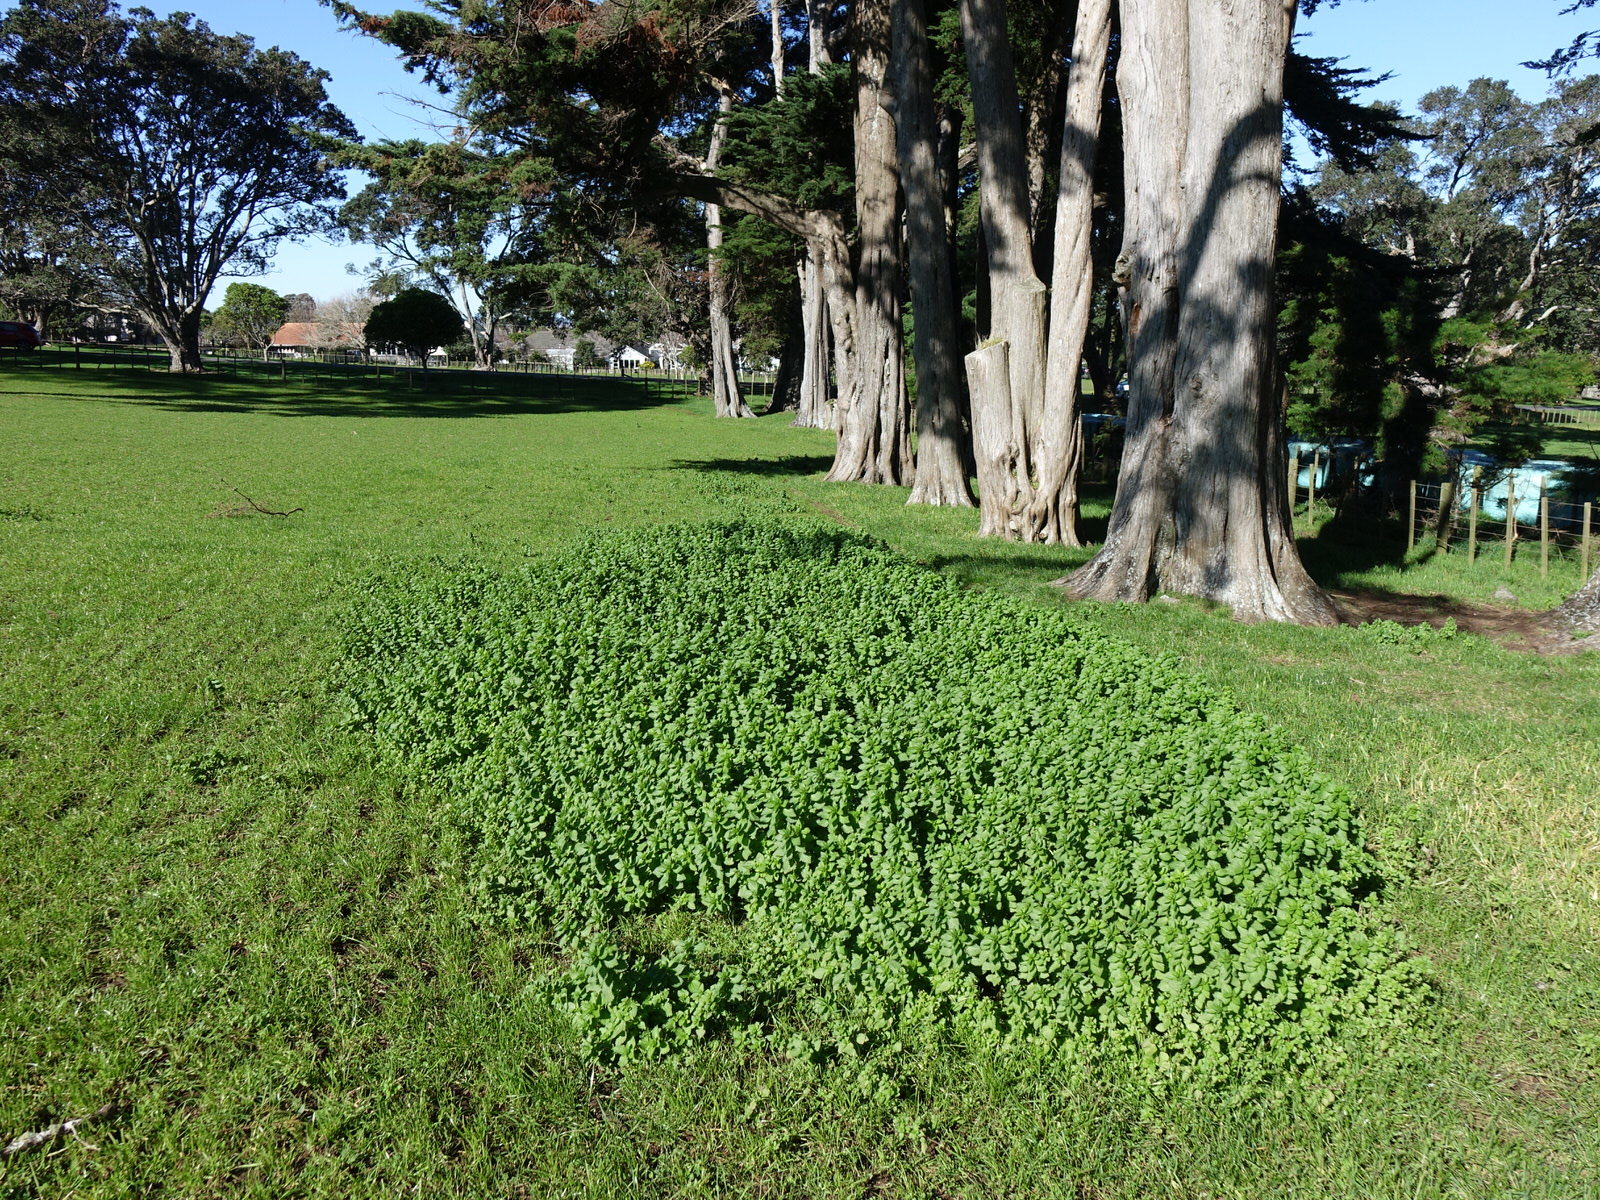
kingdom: Plantae
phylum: Tracheophyta
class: Magnoliopsida
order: Rosales
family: Urticaceae
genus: Urtica
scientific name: Urtica urens
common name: Dwarf nettle
